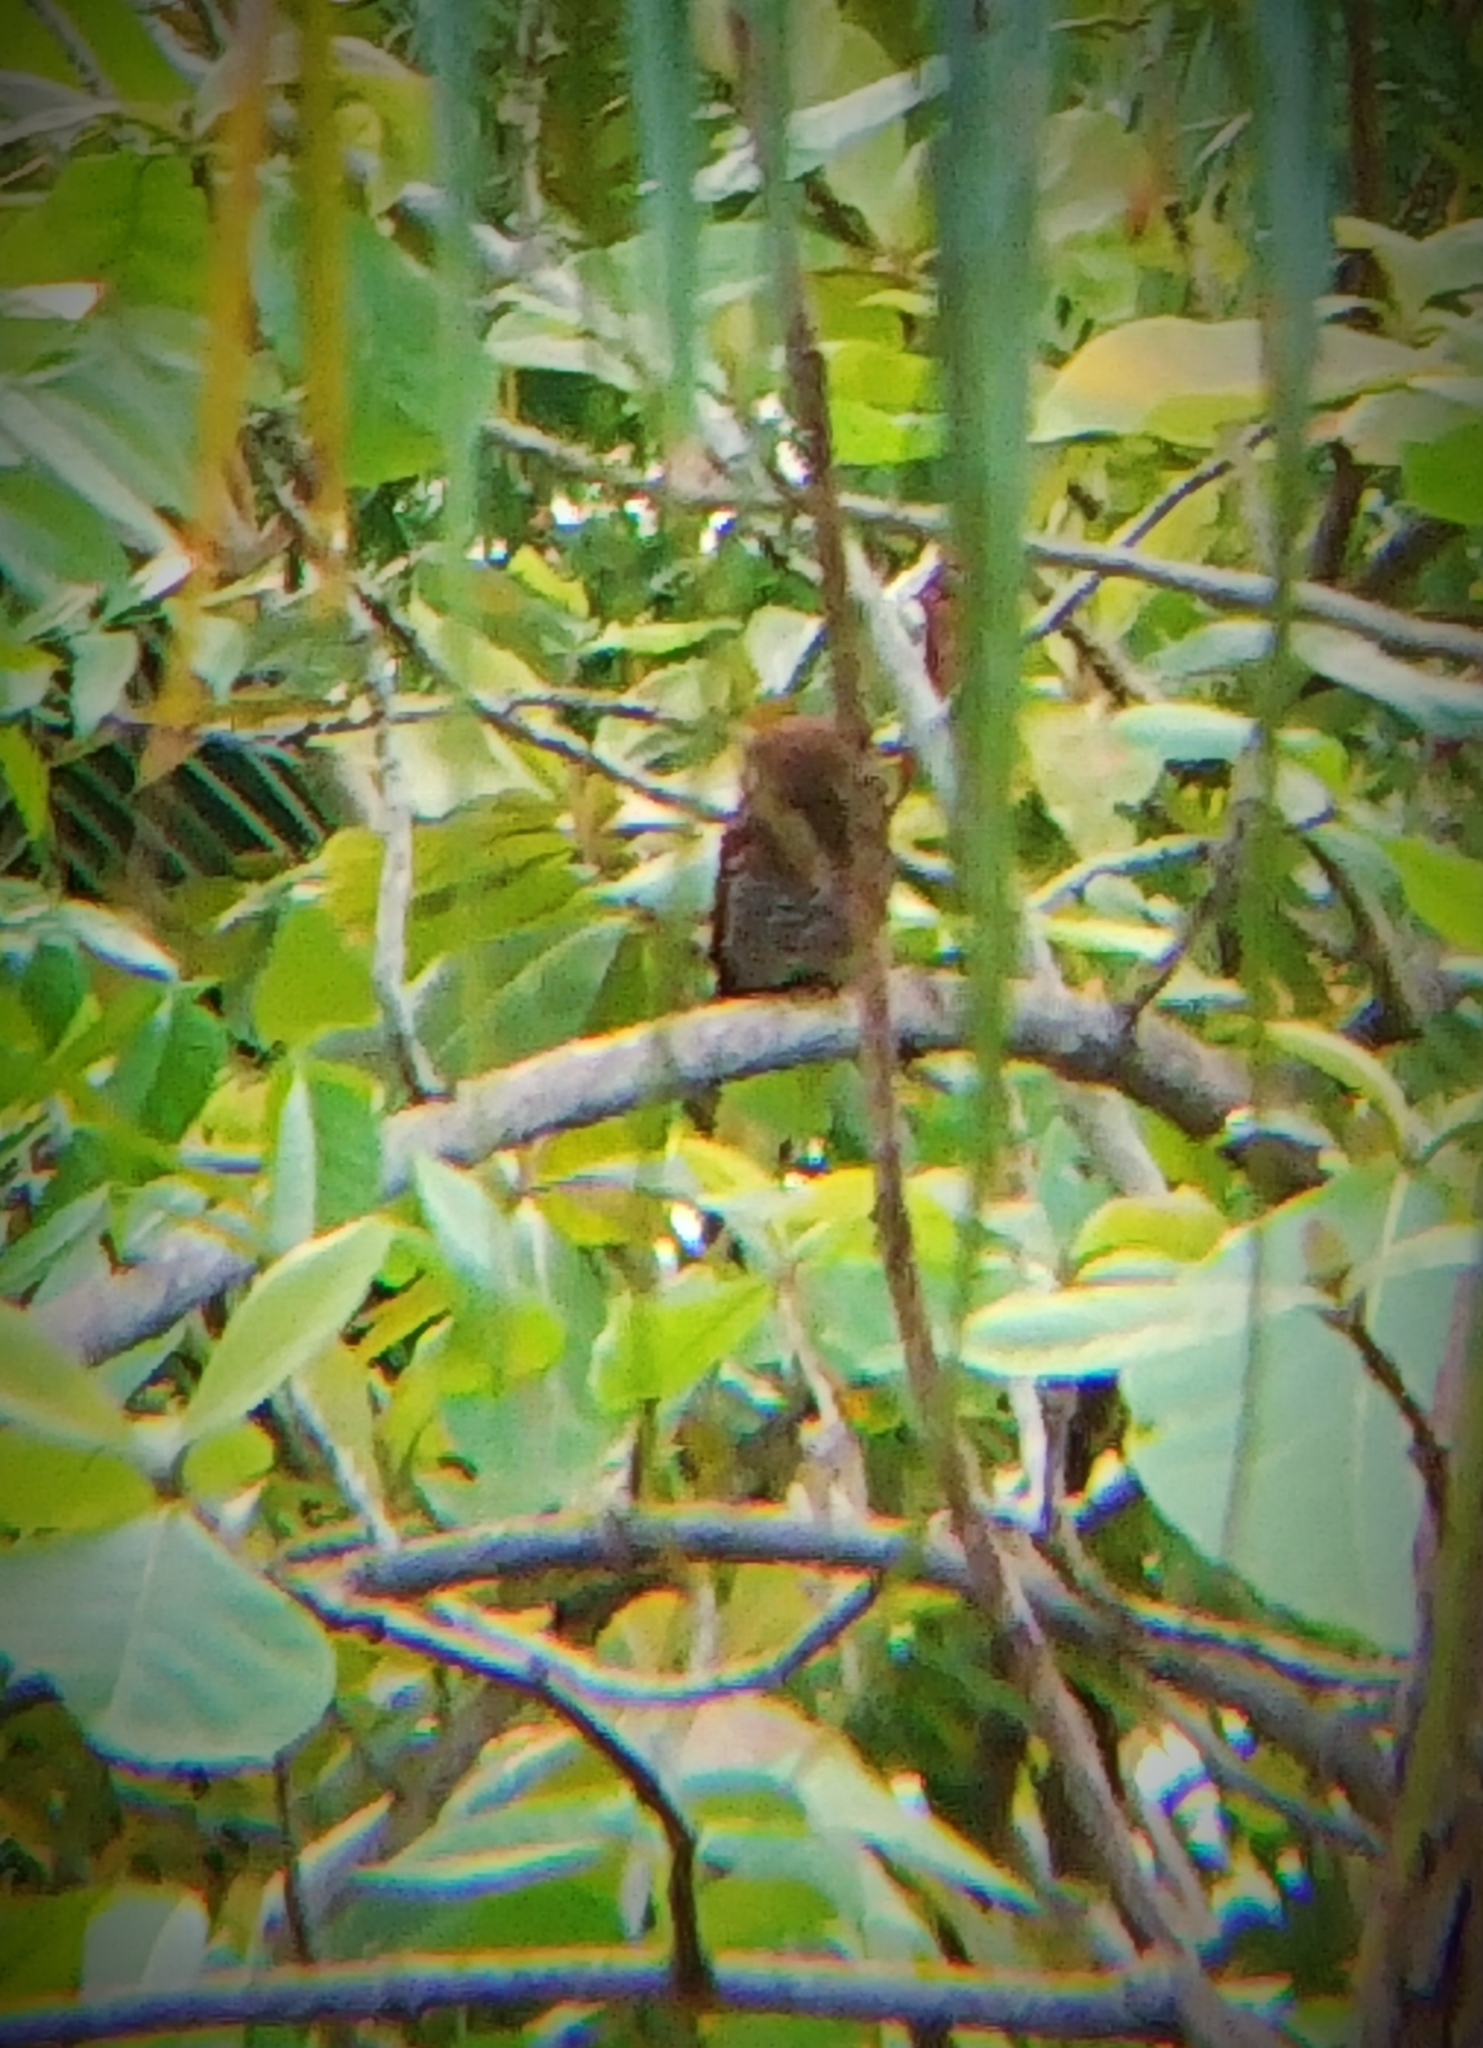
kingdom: Animalia
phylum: Chordata
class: Aves
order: Strigiformes
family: Strigidae
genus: Glaucidium
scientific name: Glaucidium radiatum
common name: Jungle owlet
